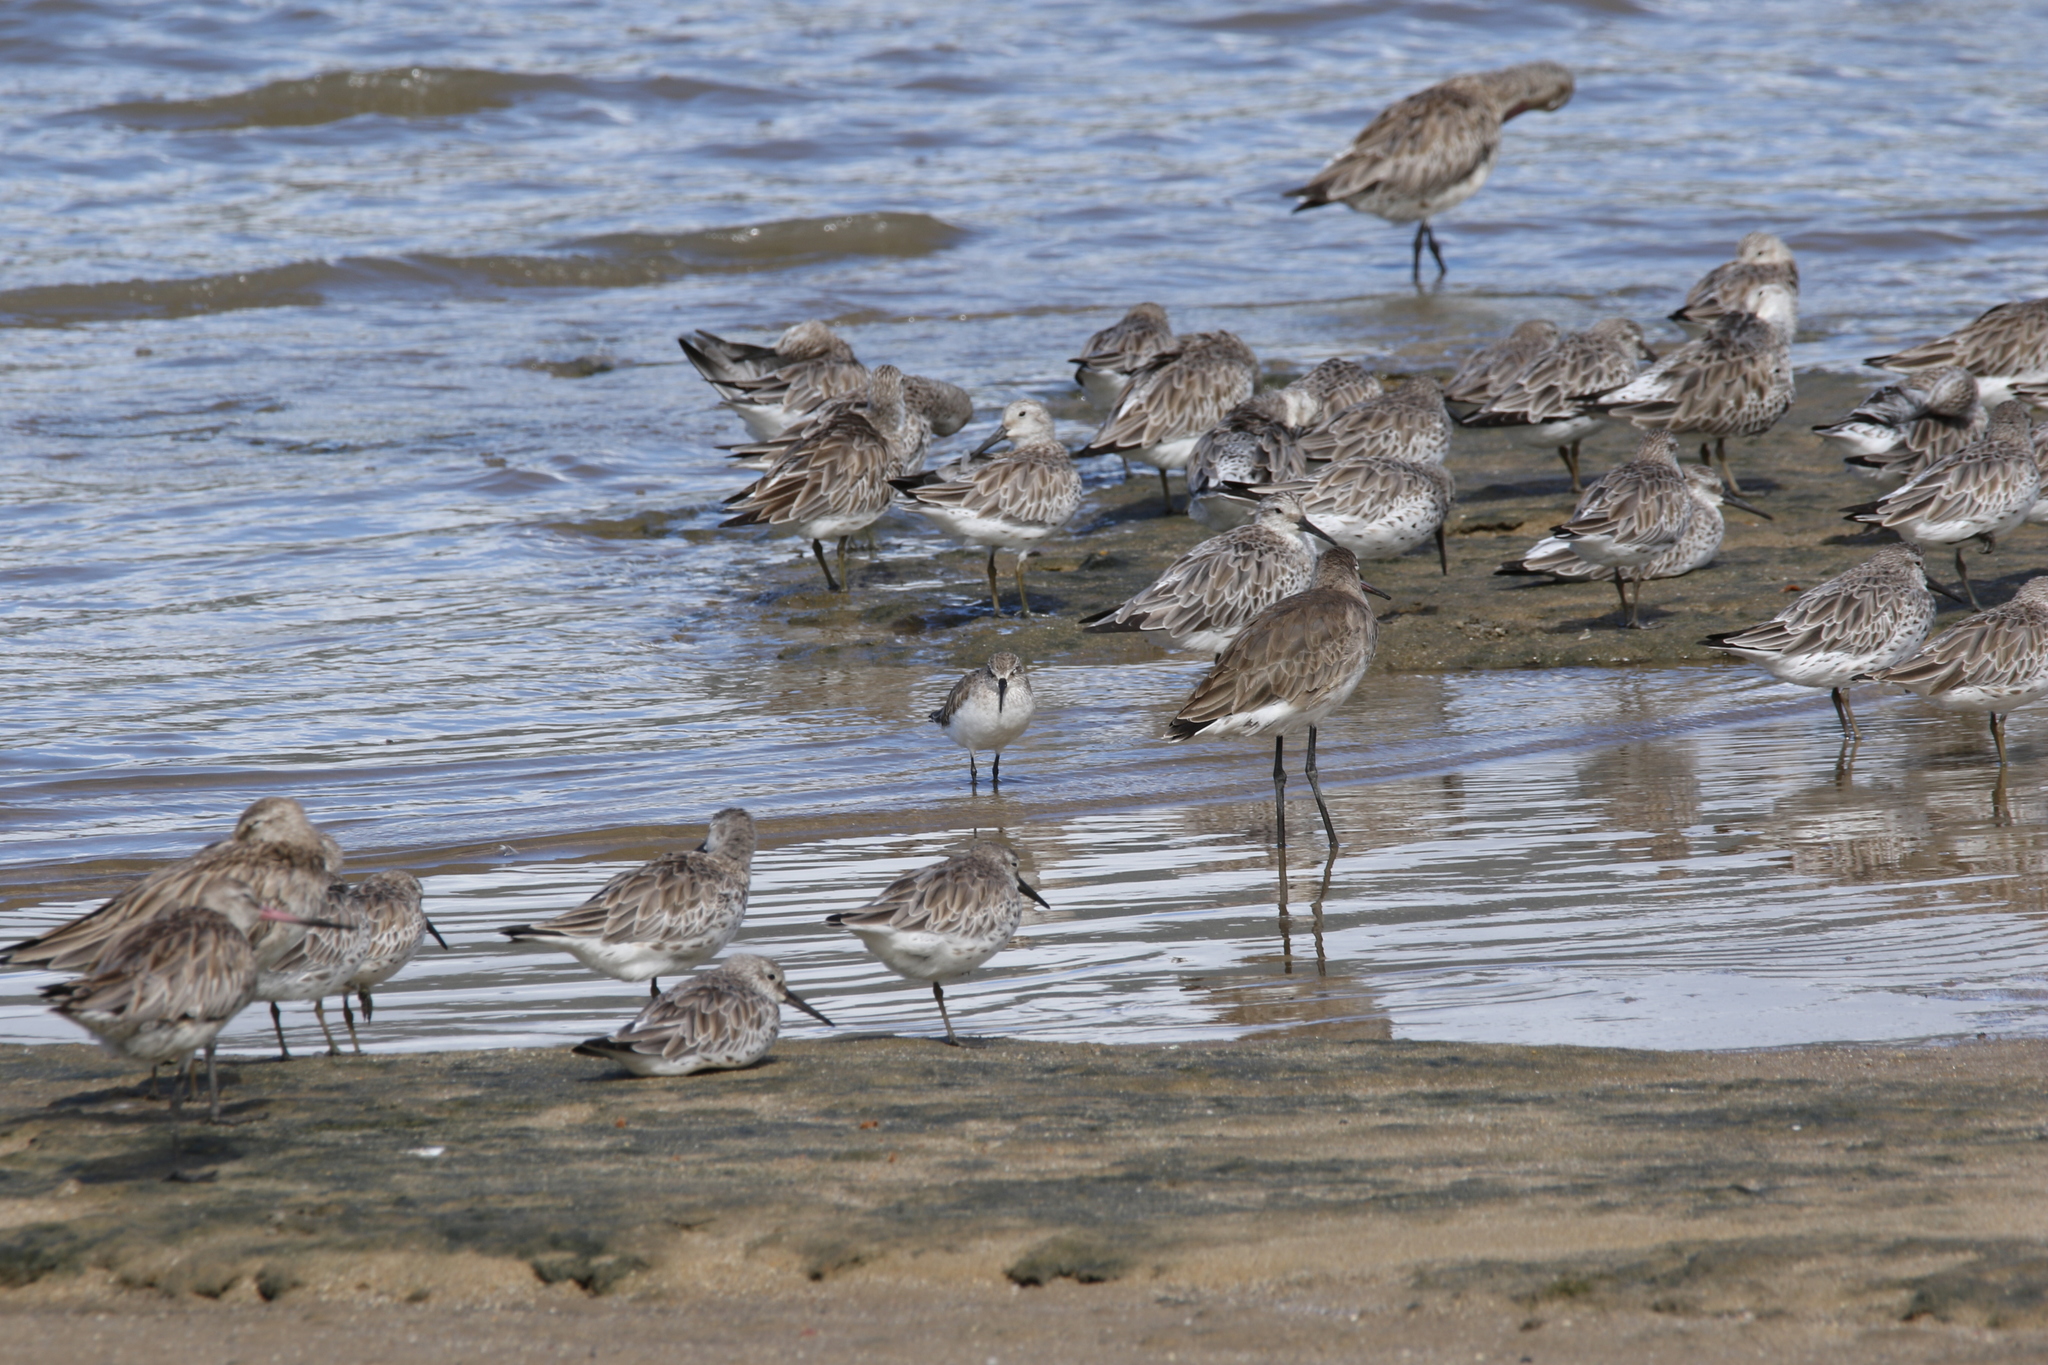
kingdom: Animalia
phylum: Chordata
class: Aves
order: Charadriiformes
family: Scolopacidae
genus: Calidris
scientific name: Calidris ferruginea
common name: Curlew sandpiper
